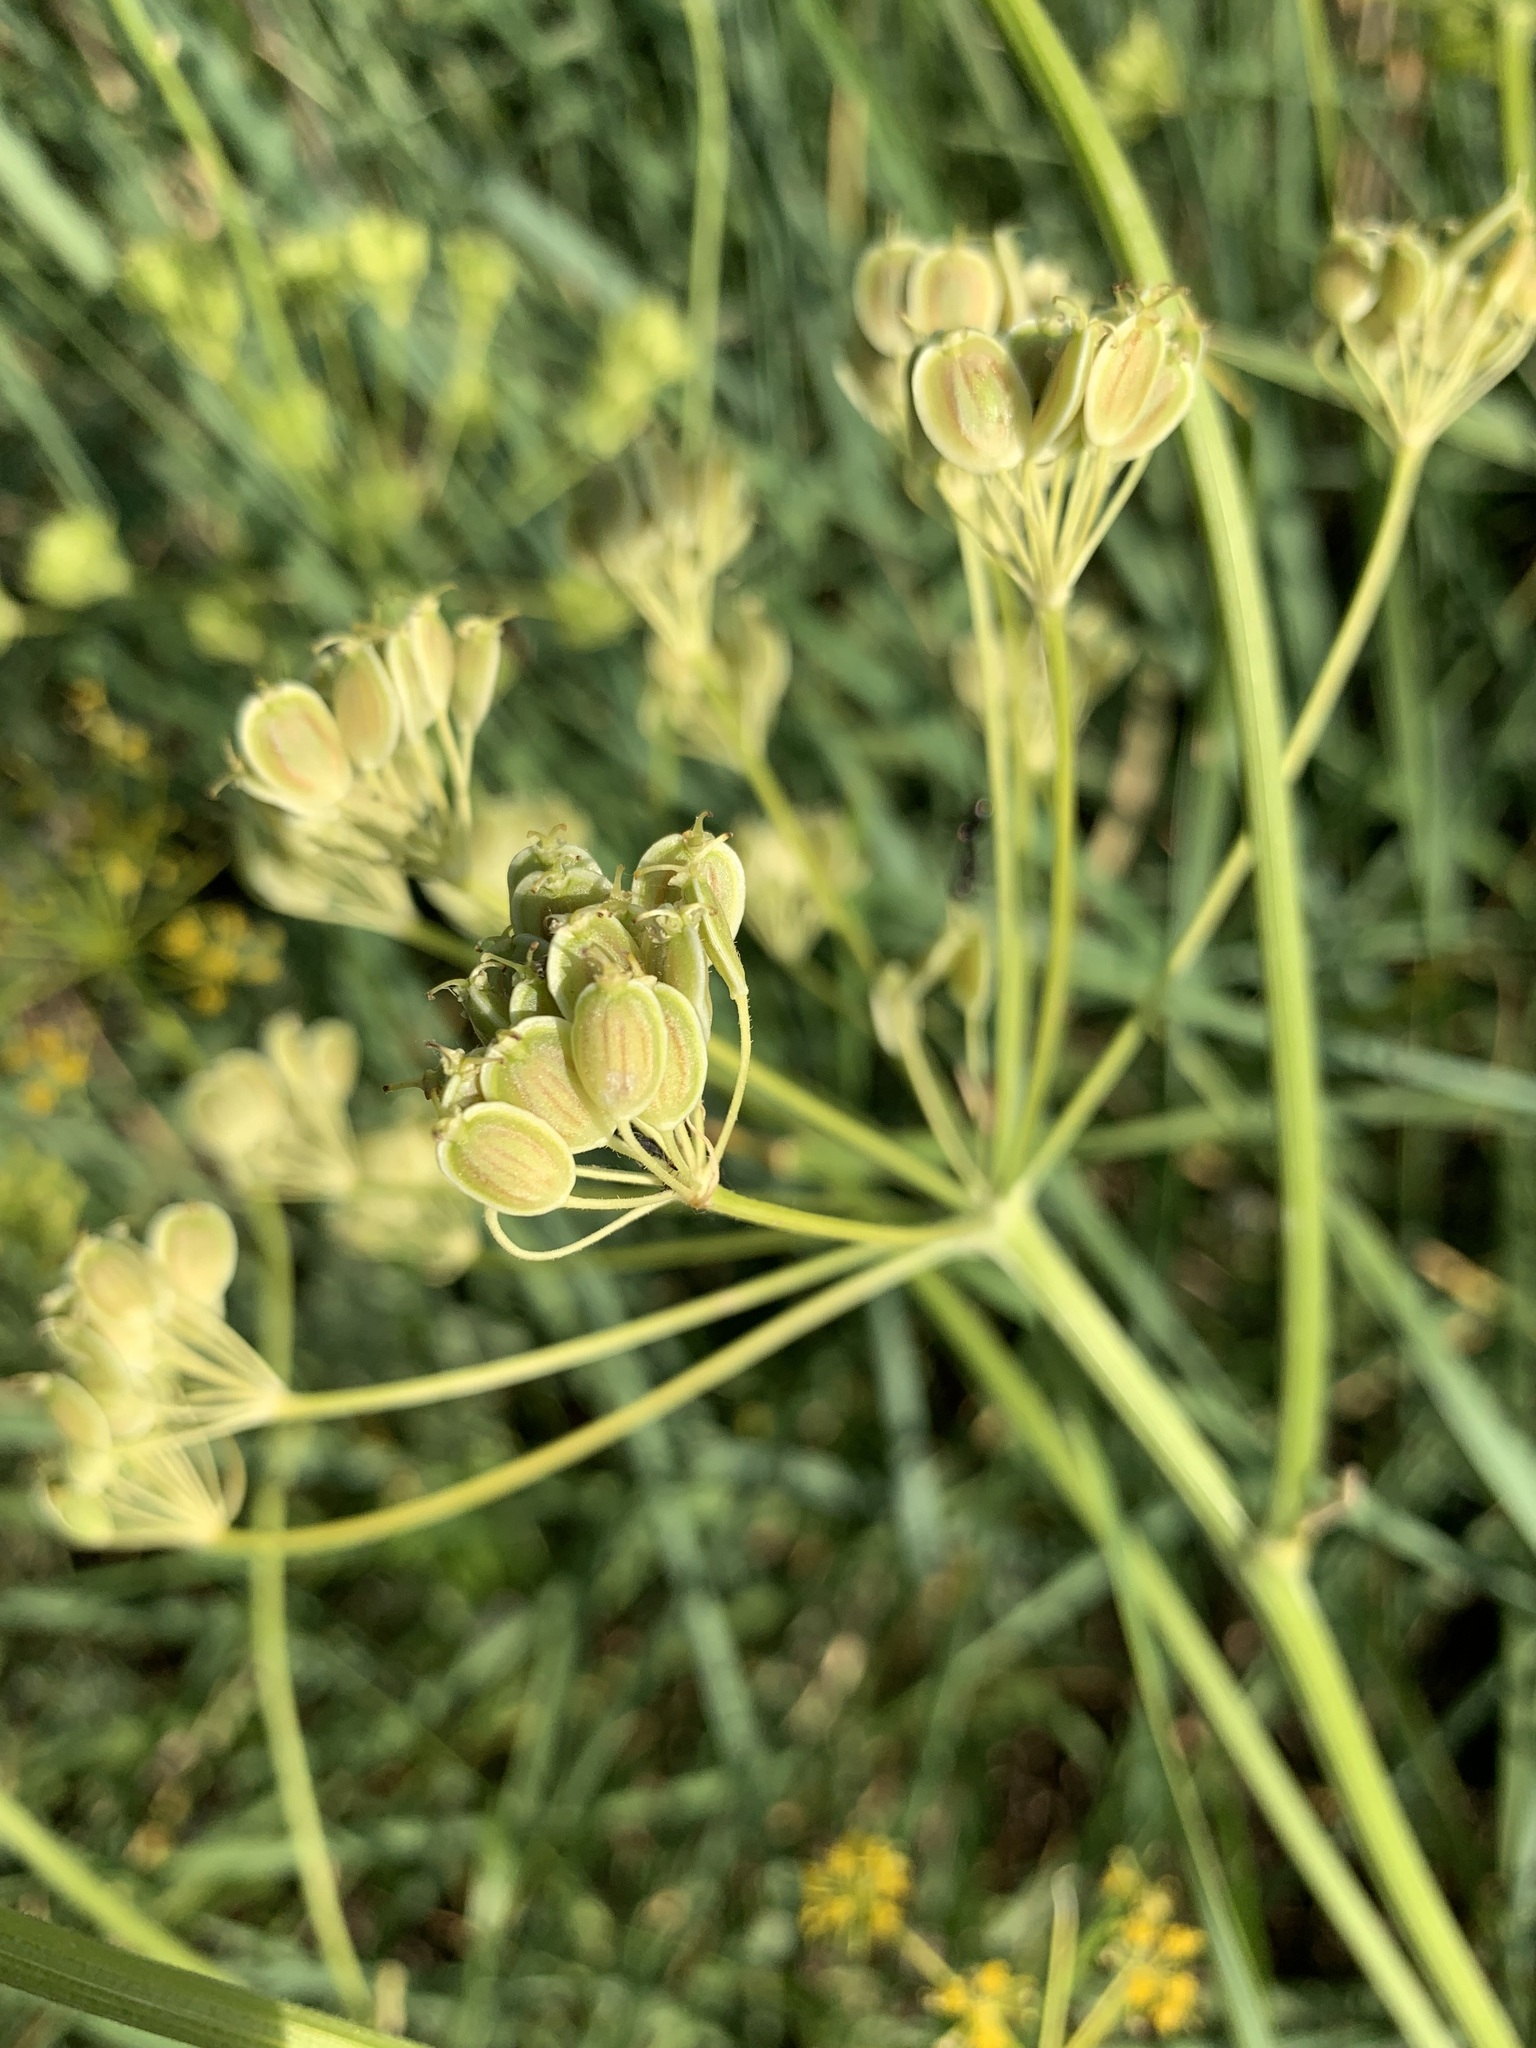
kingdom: Plantae
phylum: Tracheophyta
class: Magnoliopsida
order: Apiales
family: Apiaceae
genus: Pastinaca
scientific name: Pastinaca clausii
